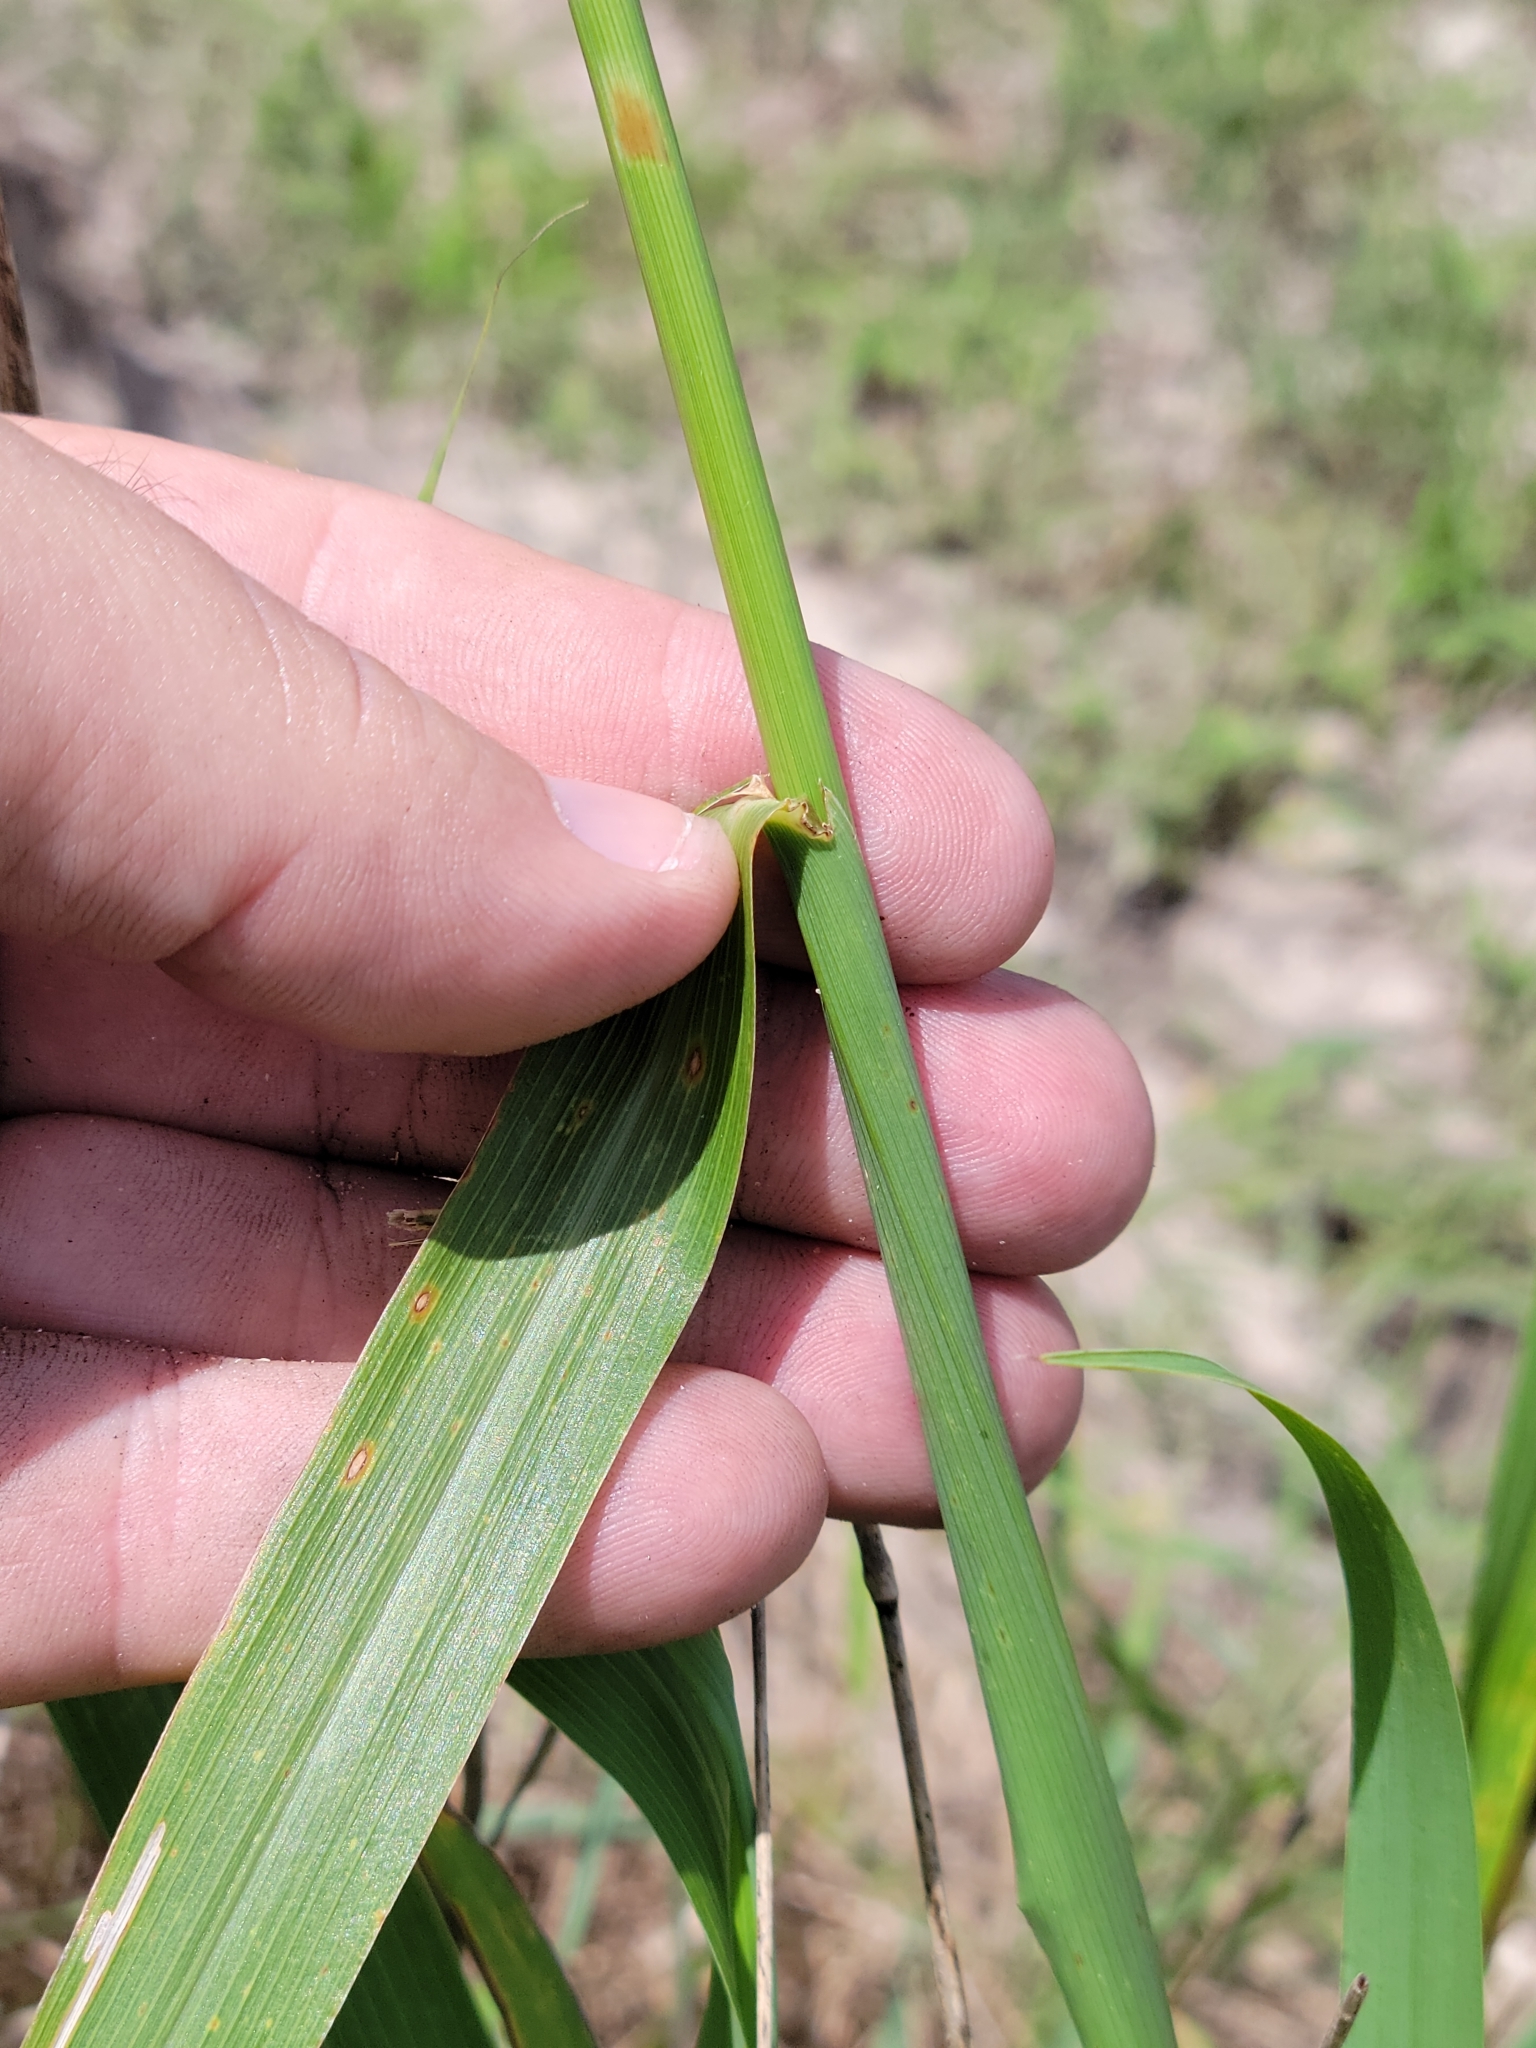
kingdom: Plantae
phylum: Tracheophyta
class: Liliopsida
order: Poales
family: Poaceae
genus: Digitaria
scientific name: Digitaria insularis
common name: Sourgrass
